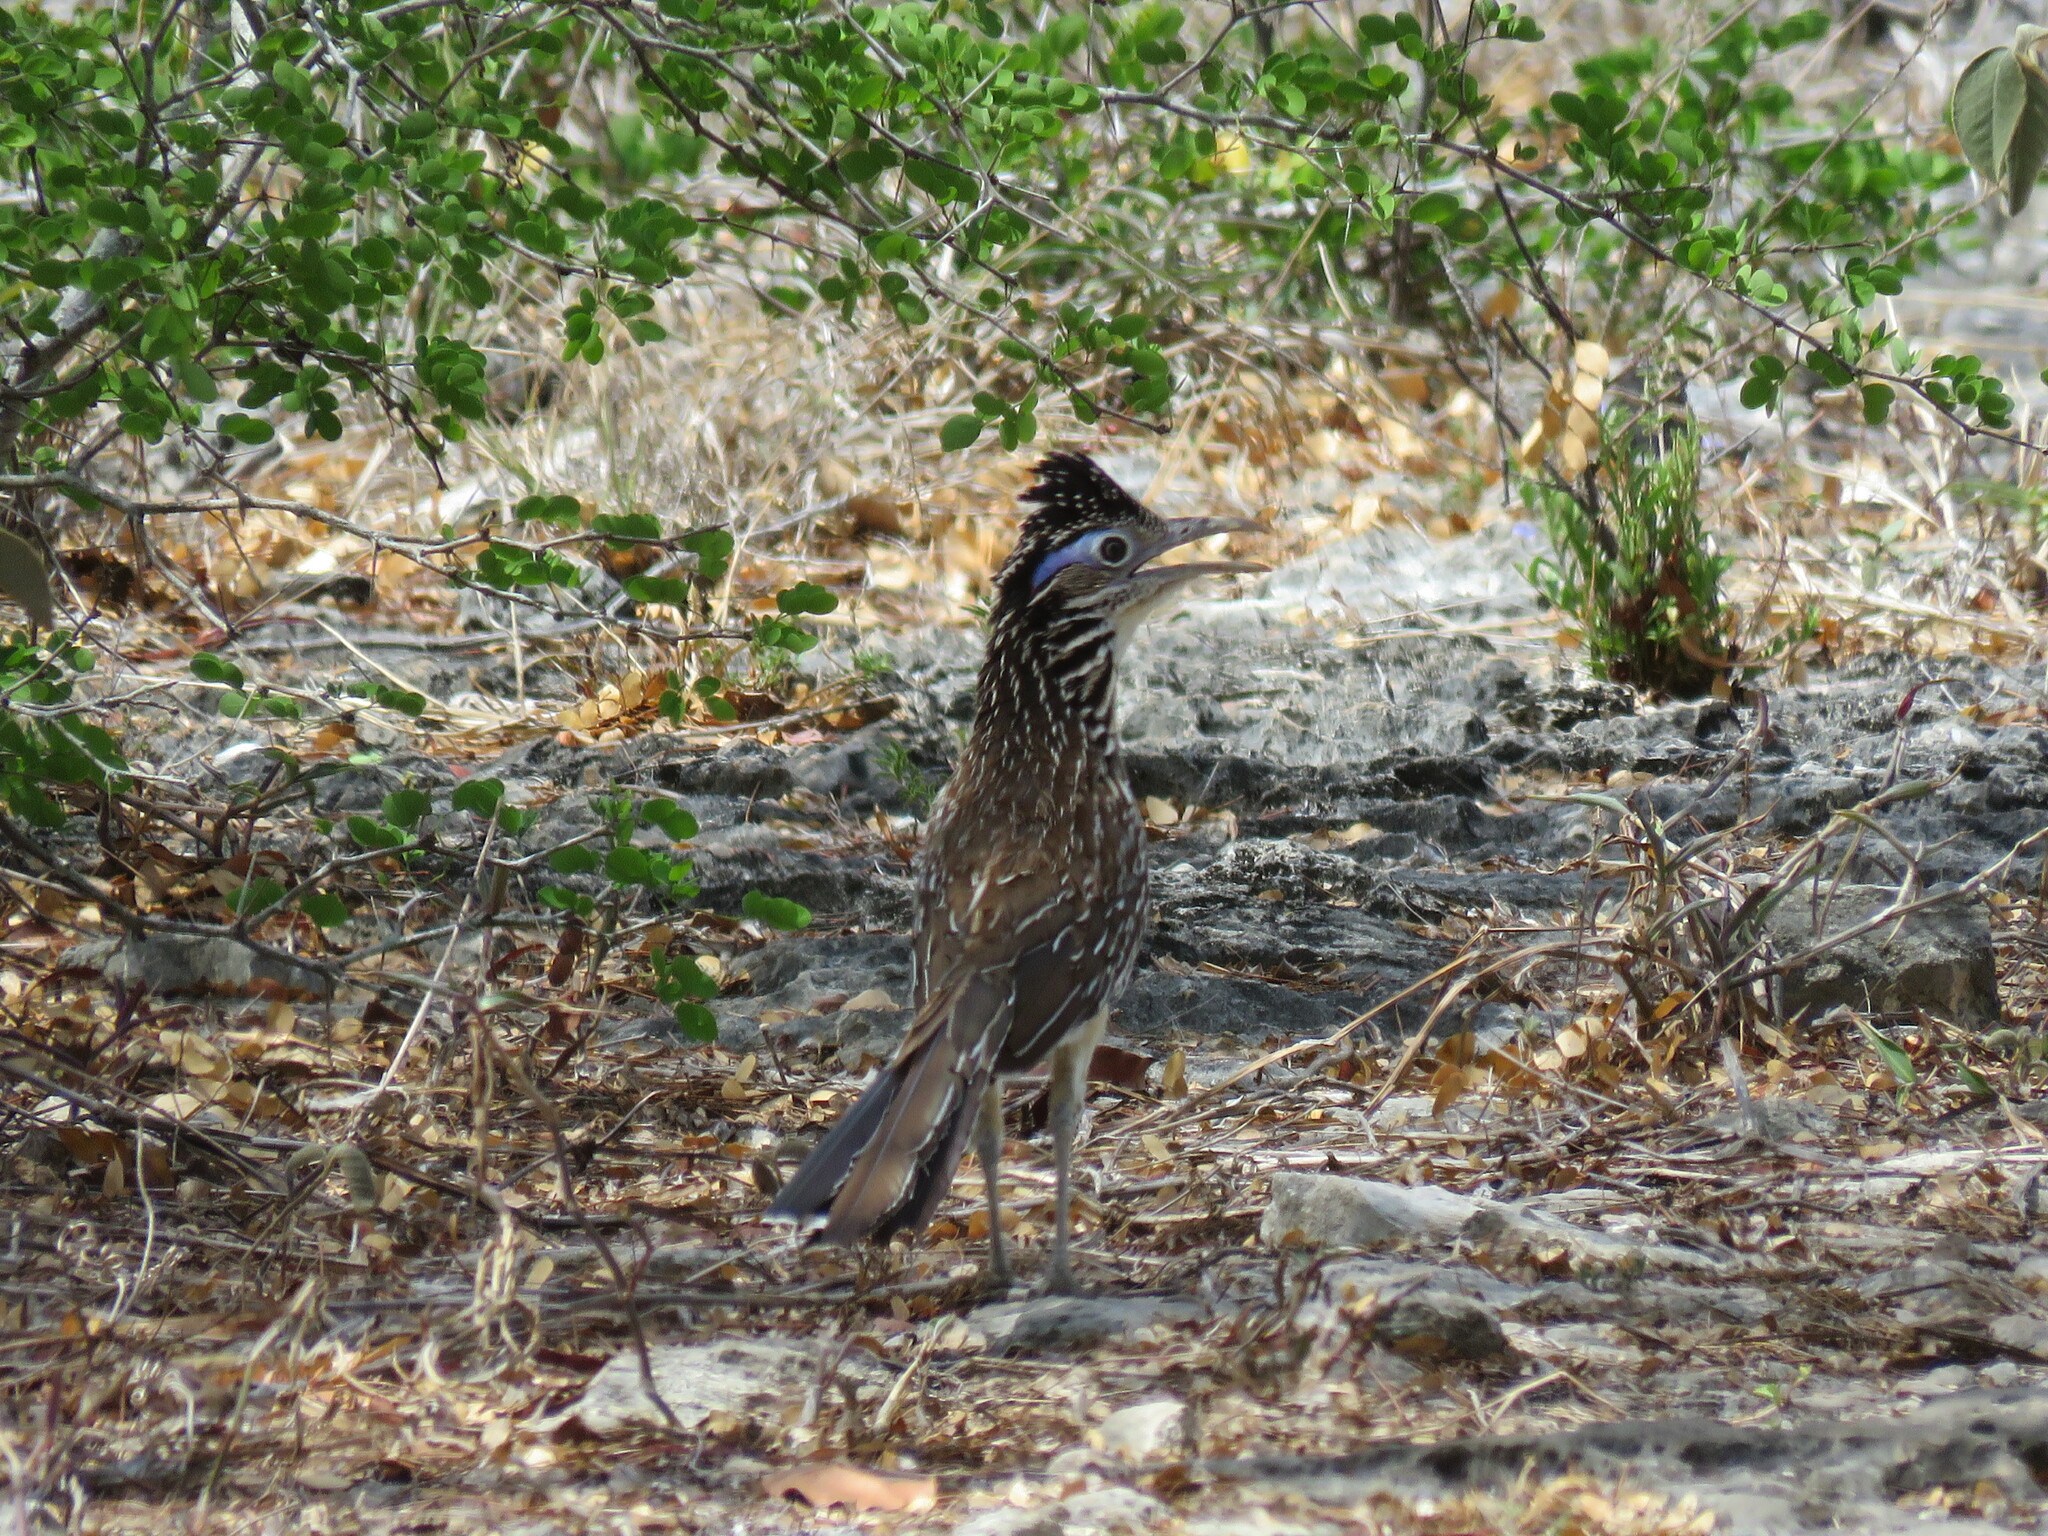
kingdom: Animalia
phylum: Chordata
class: Aves
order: Cuculiformes
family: Cuculidae
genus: Geococcyx
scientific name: Geococcyx velox
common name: Lesser roadrunner
